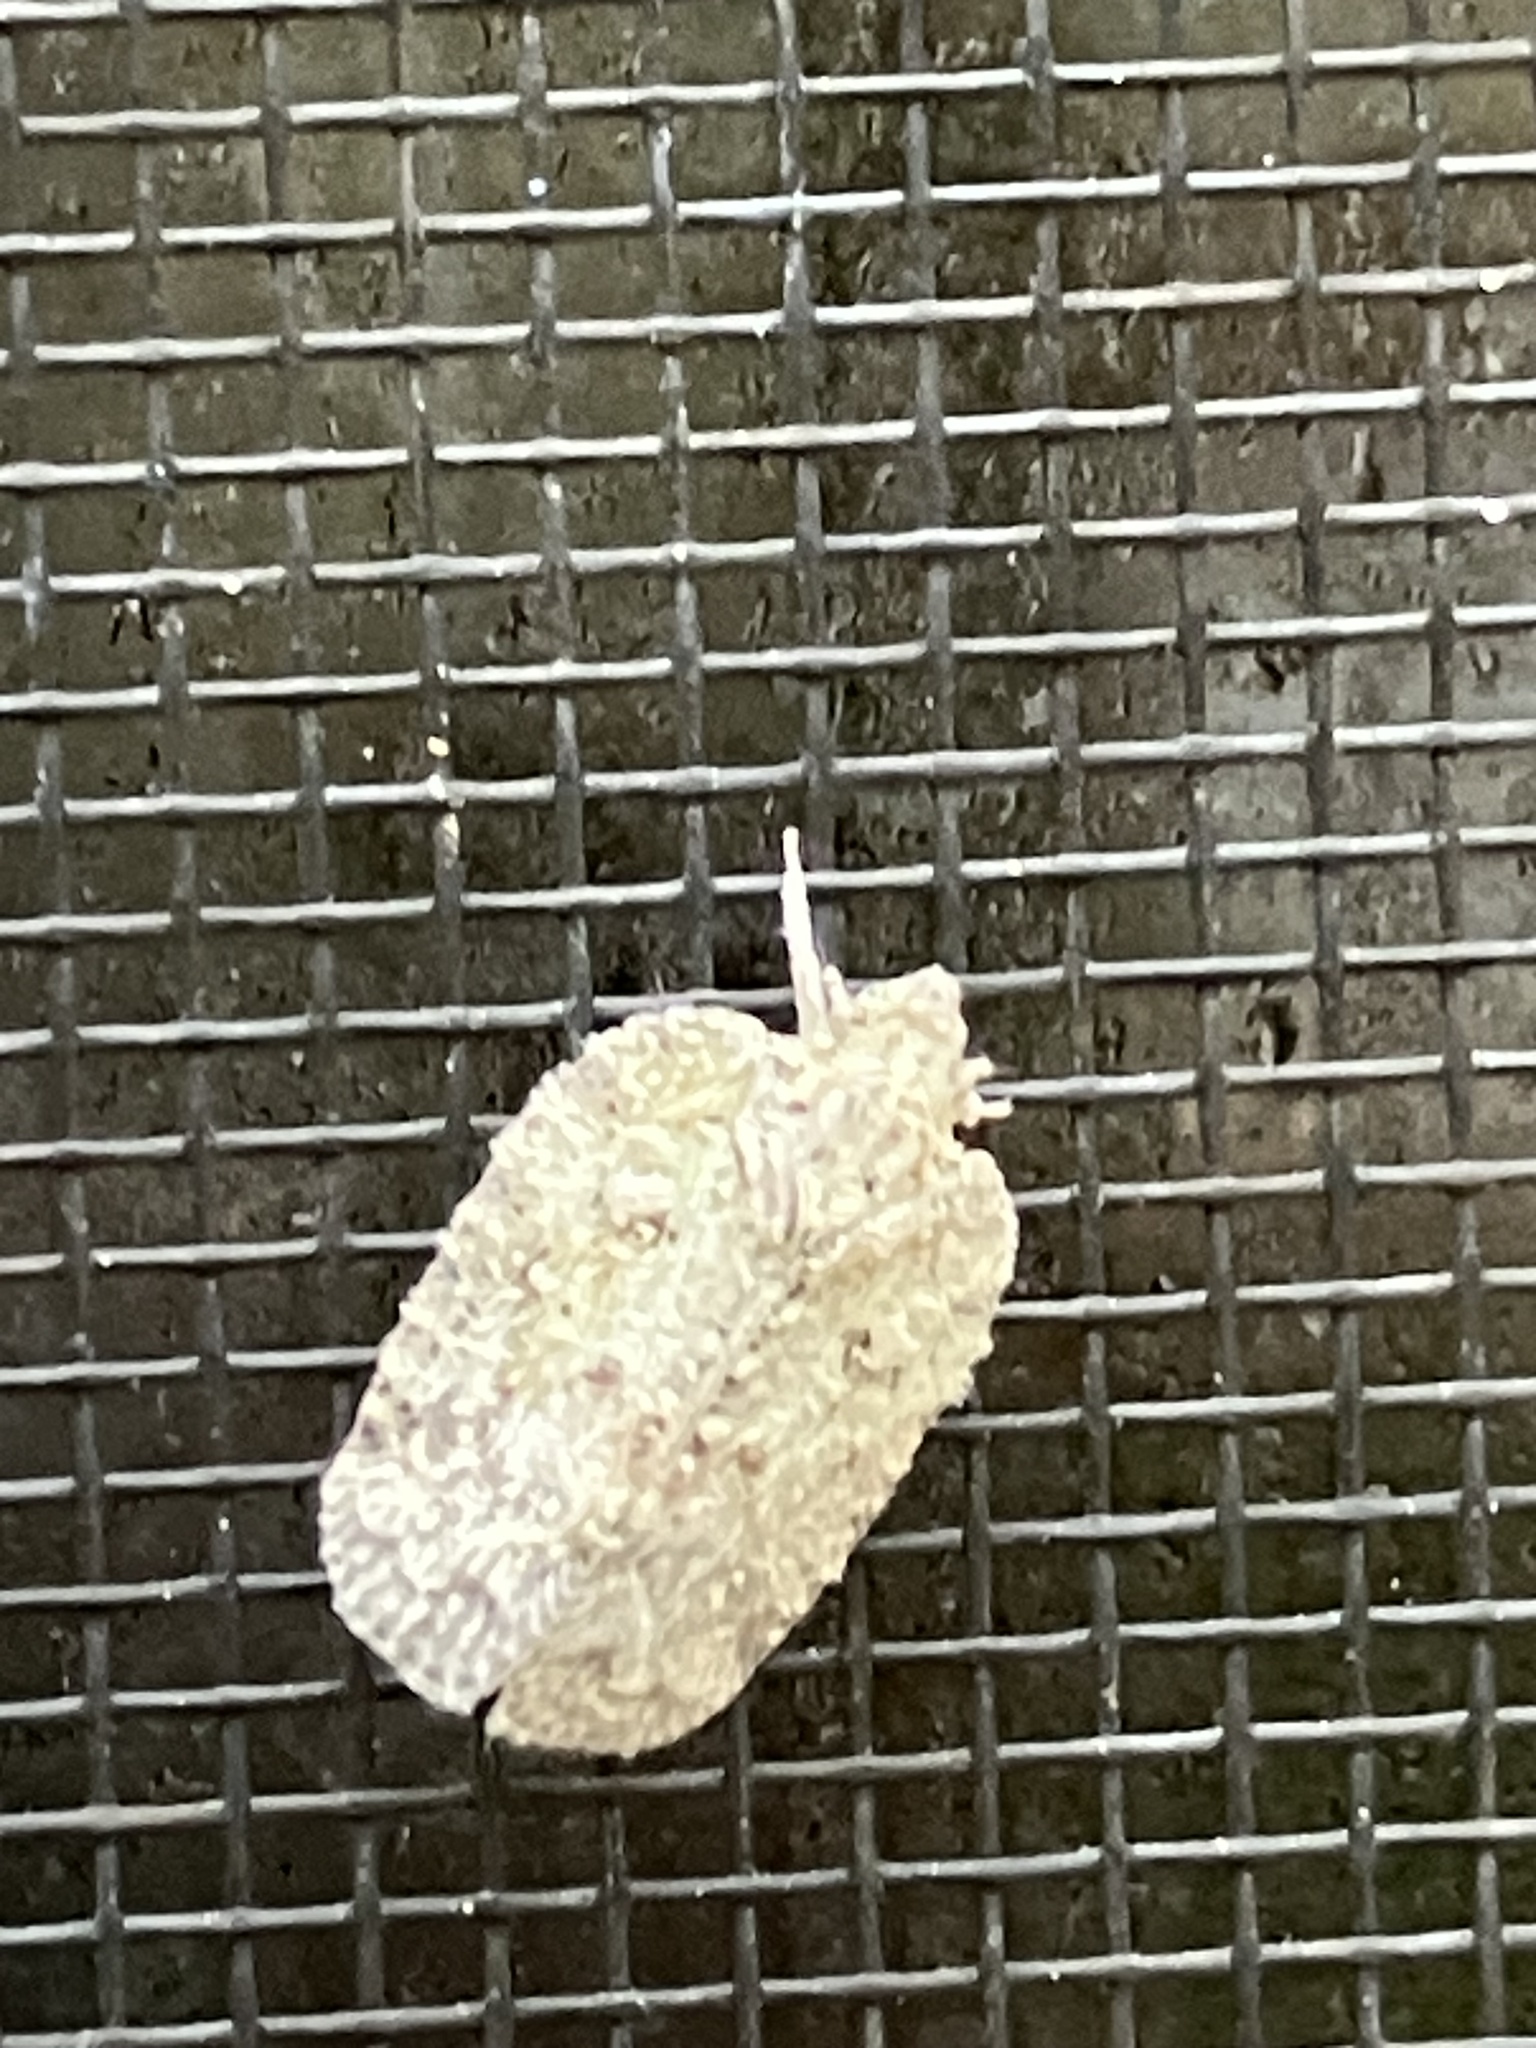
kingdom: Animalia
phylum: Arthropoda
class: Insecta
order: Hemiptera
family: Flatidae
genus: Flatoidinus
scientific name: Flatoidinus punctatus
